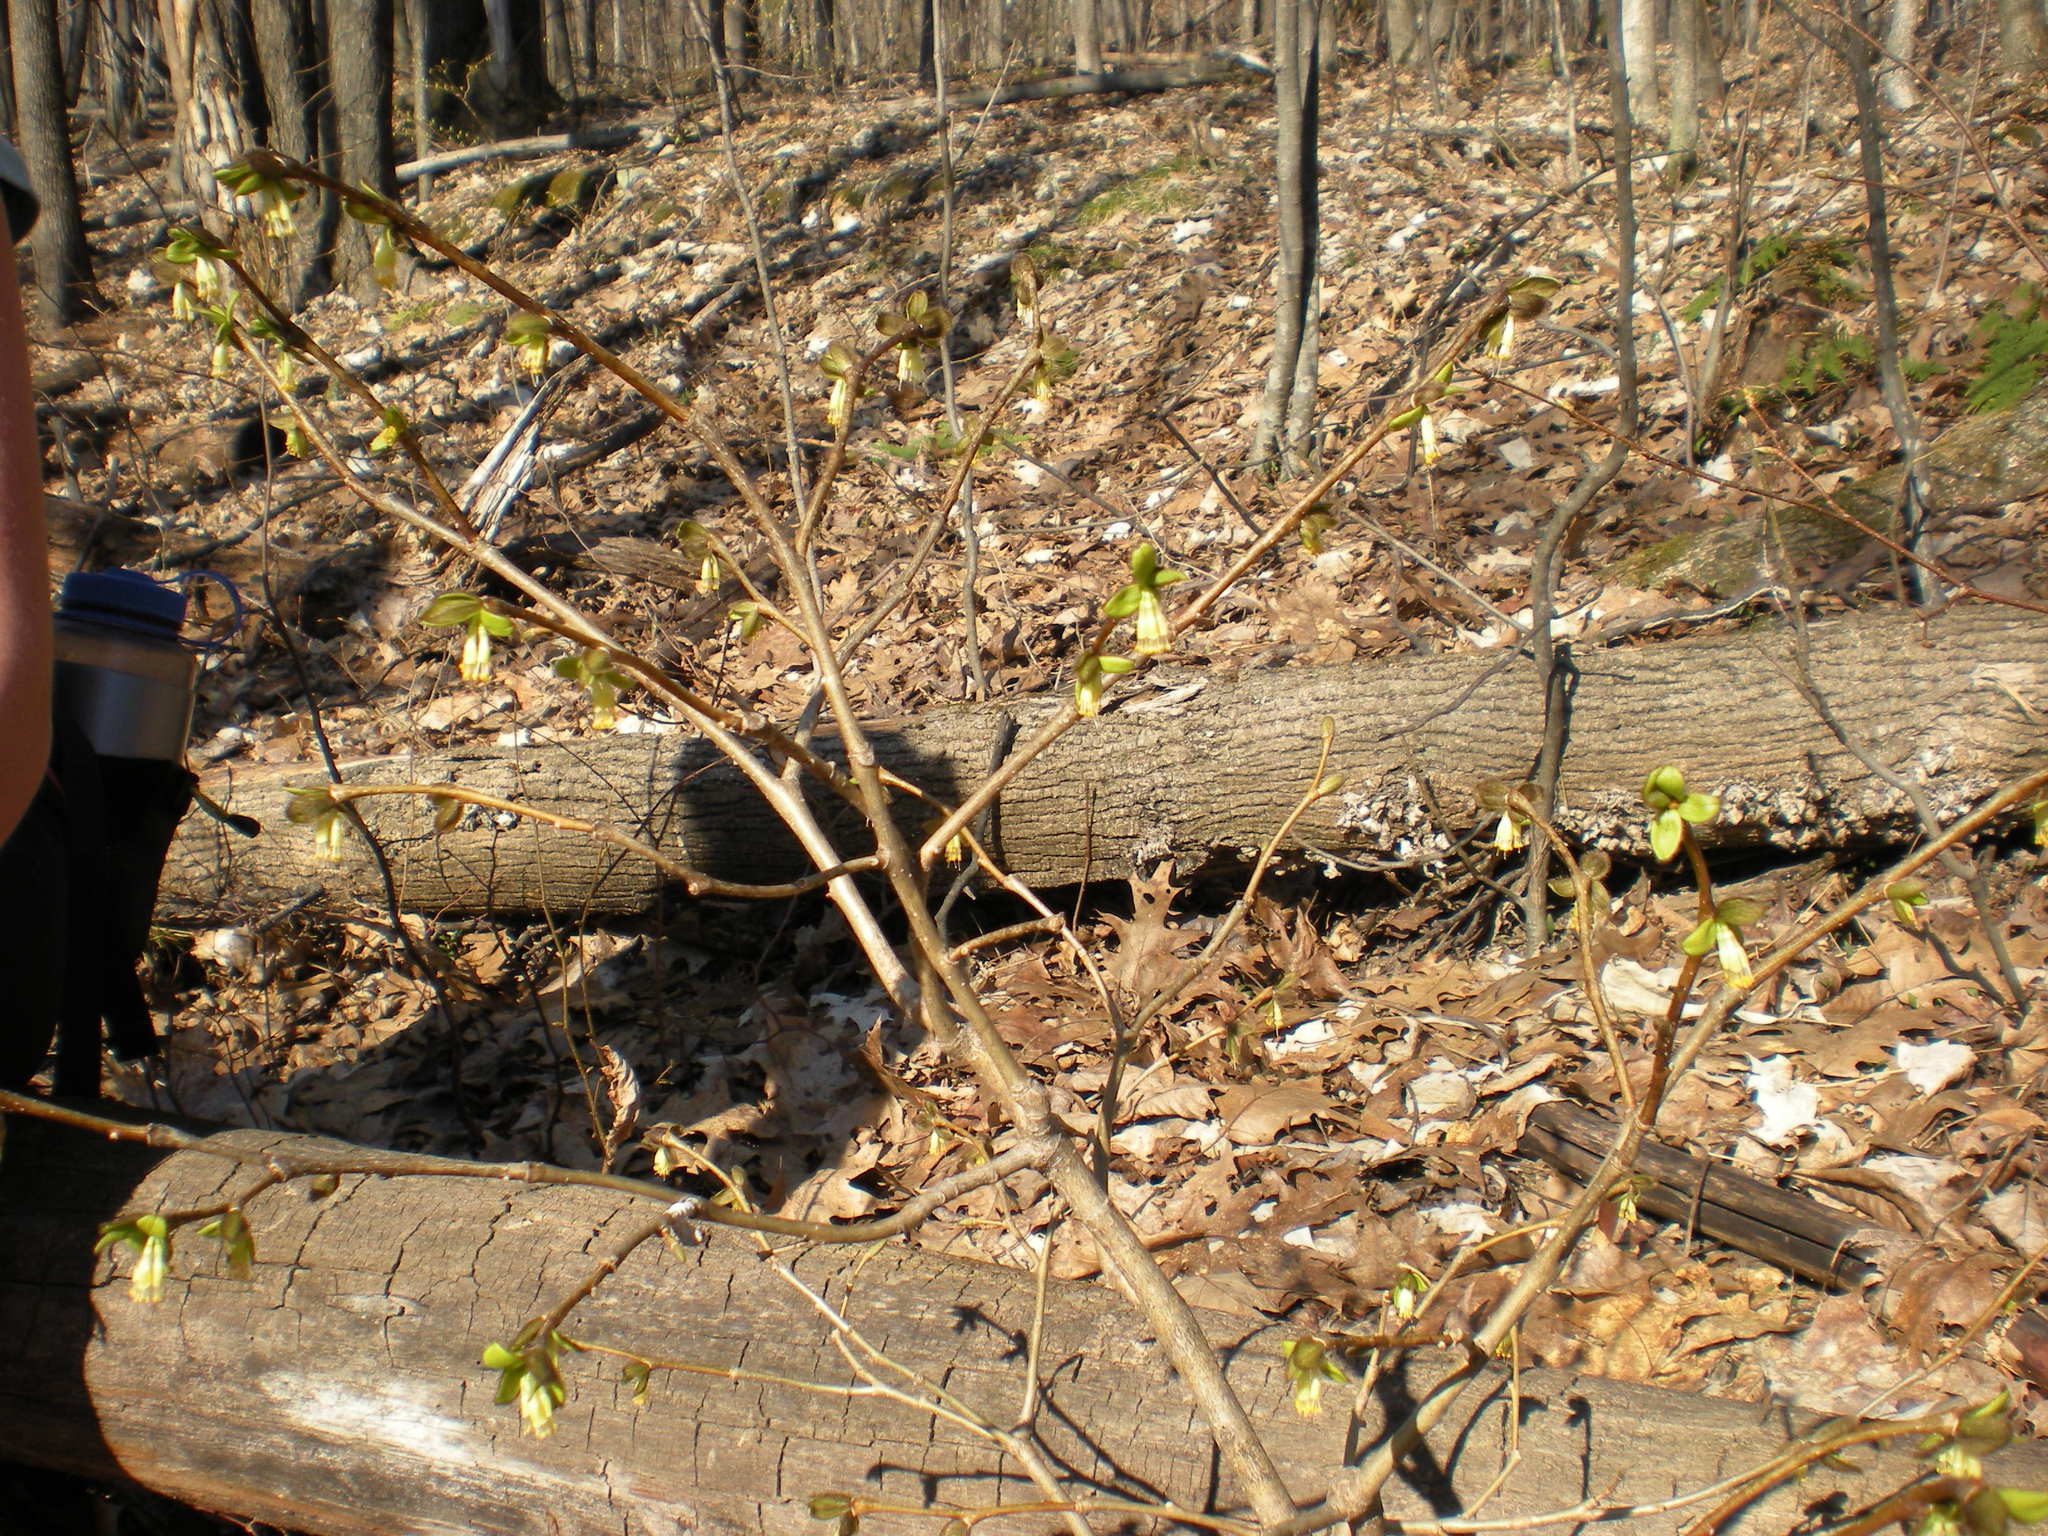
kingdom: Plantae
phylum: Tracheophyta
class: Magnoliopsida
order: Malvales
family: Thymelaeaceae
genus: Dirca
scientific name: Dirca palustris
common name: Leatherwood
